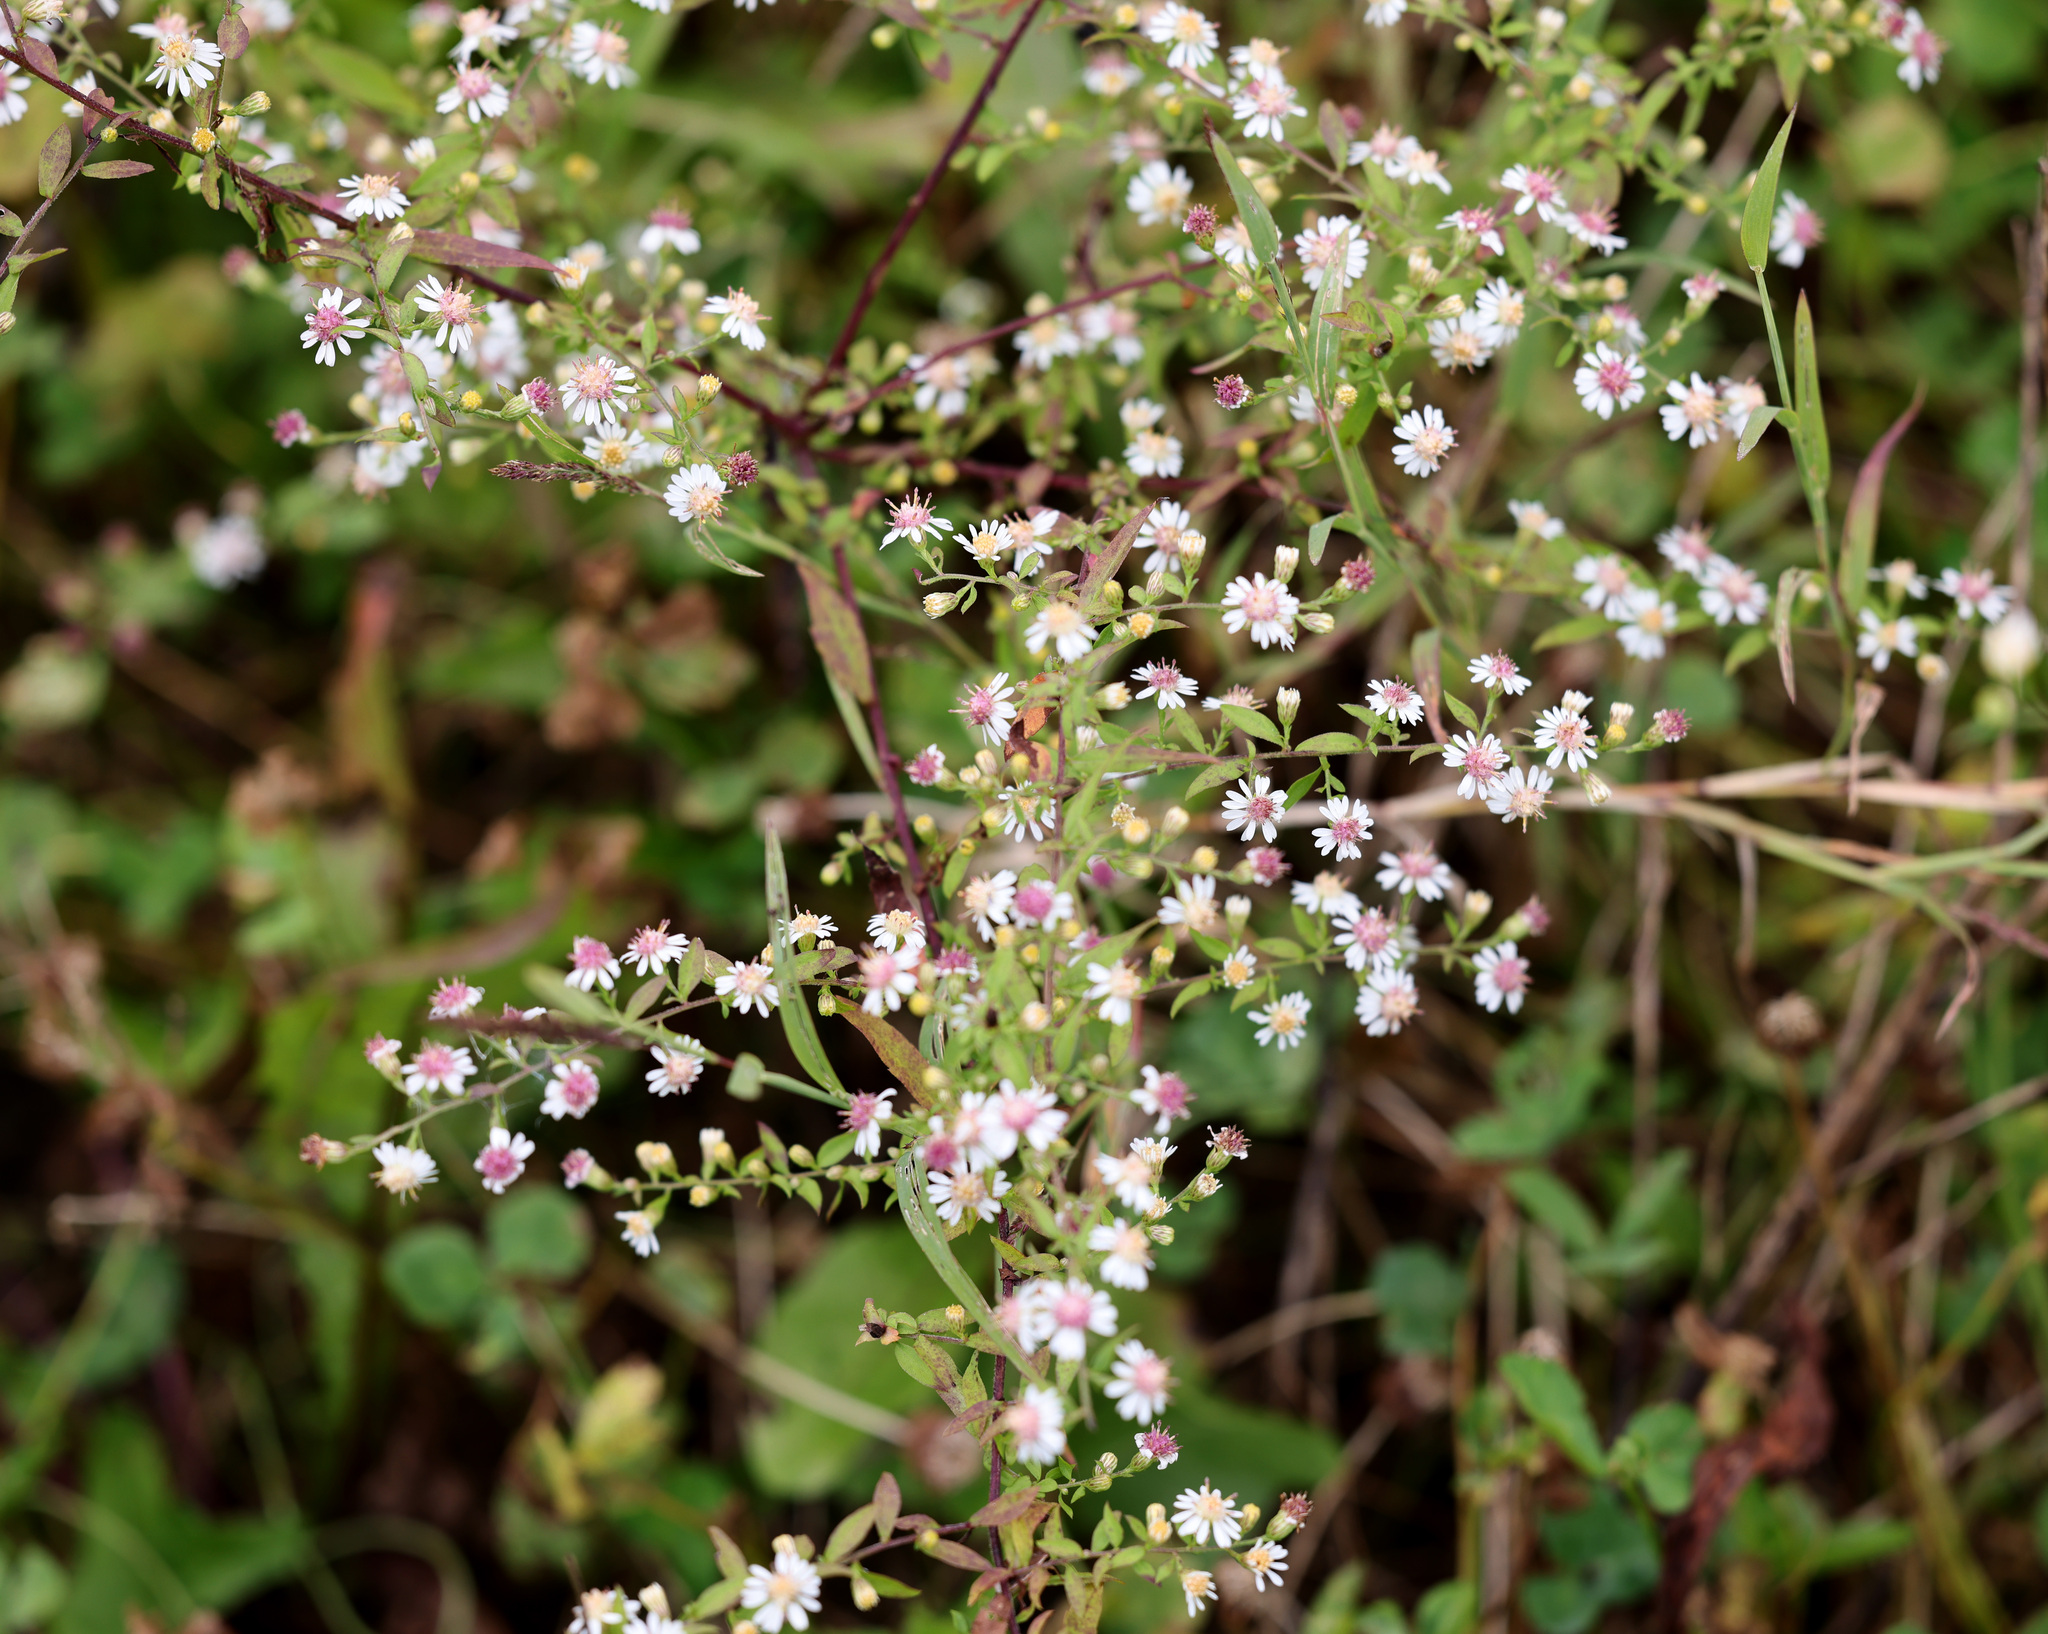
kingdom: Plantae
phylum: Tracheophyta
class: Magnoliopsida
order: Asterales
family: Asteraceae
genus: Symphyotrichum
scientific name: Symphyotrichum lateriflorum
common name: Calico aster
